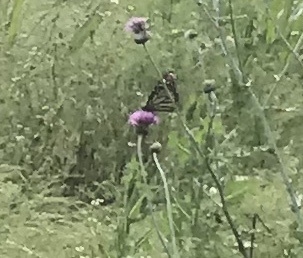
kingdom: Animalia
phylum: Arthropoda
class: Insecta
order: Lepidoptera
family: Nymphalidae
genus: Danaus
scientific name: Danaus plexippus
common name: Monarch
